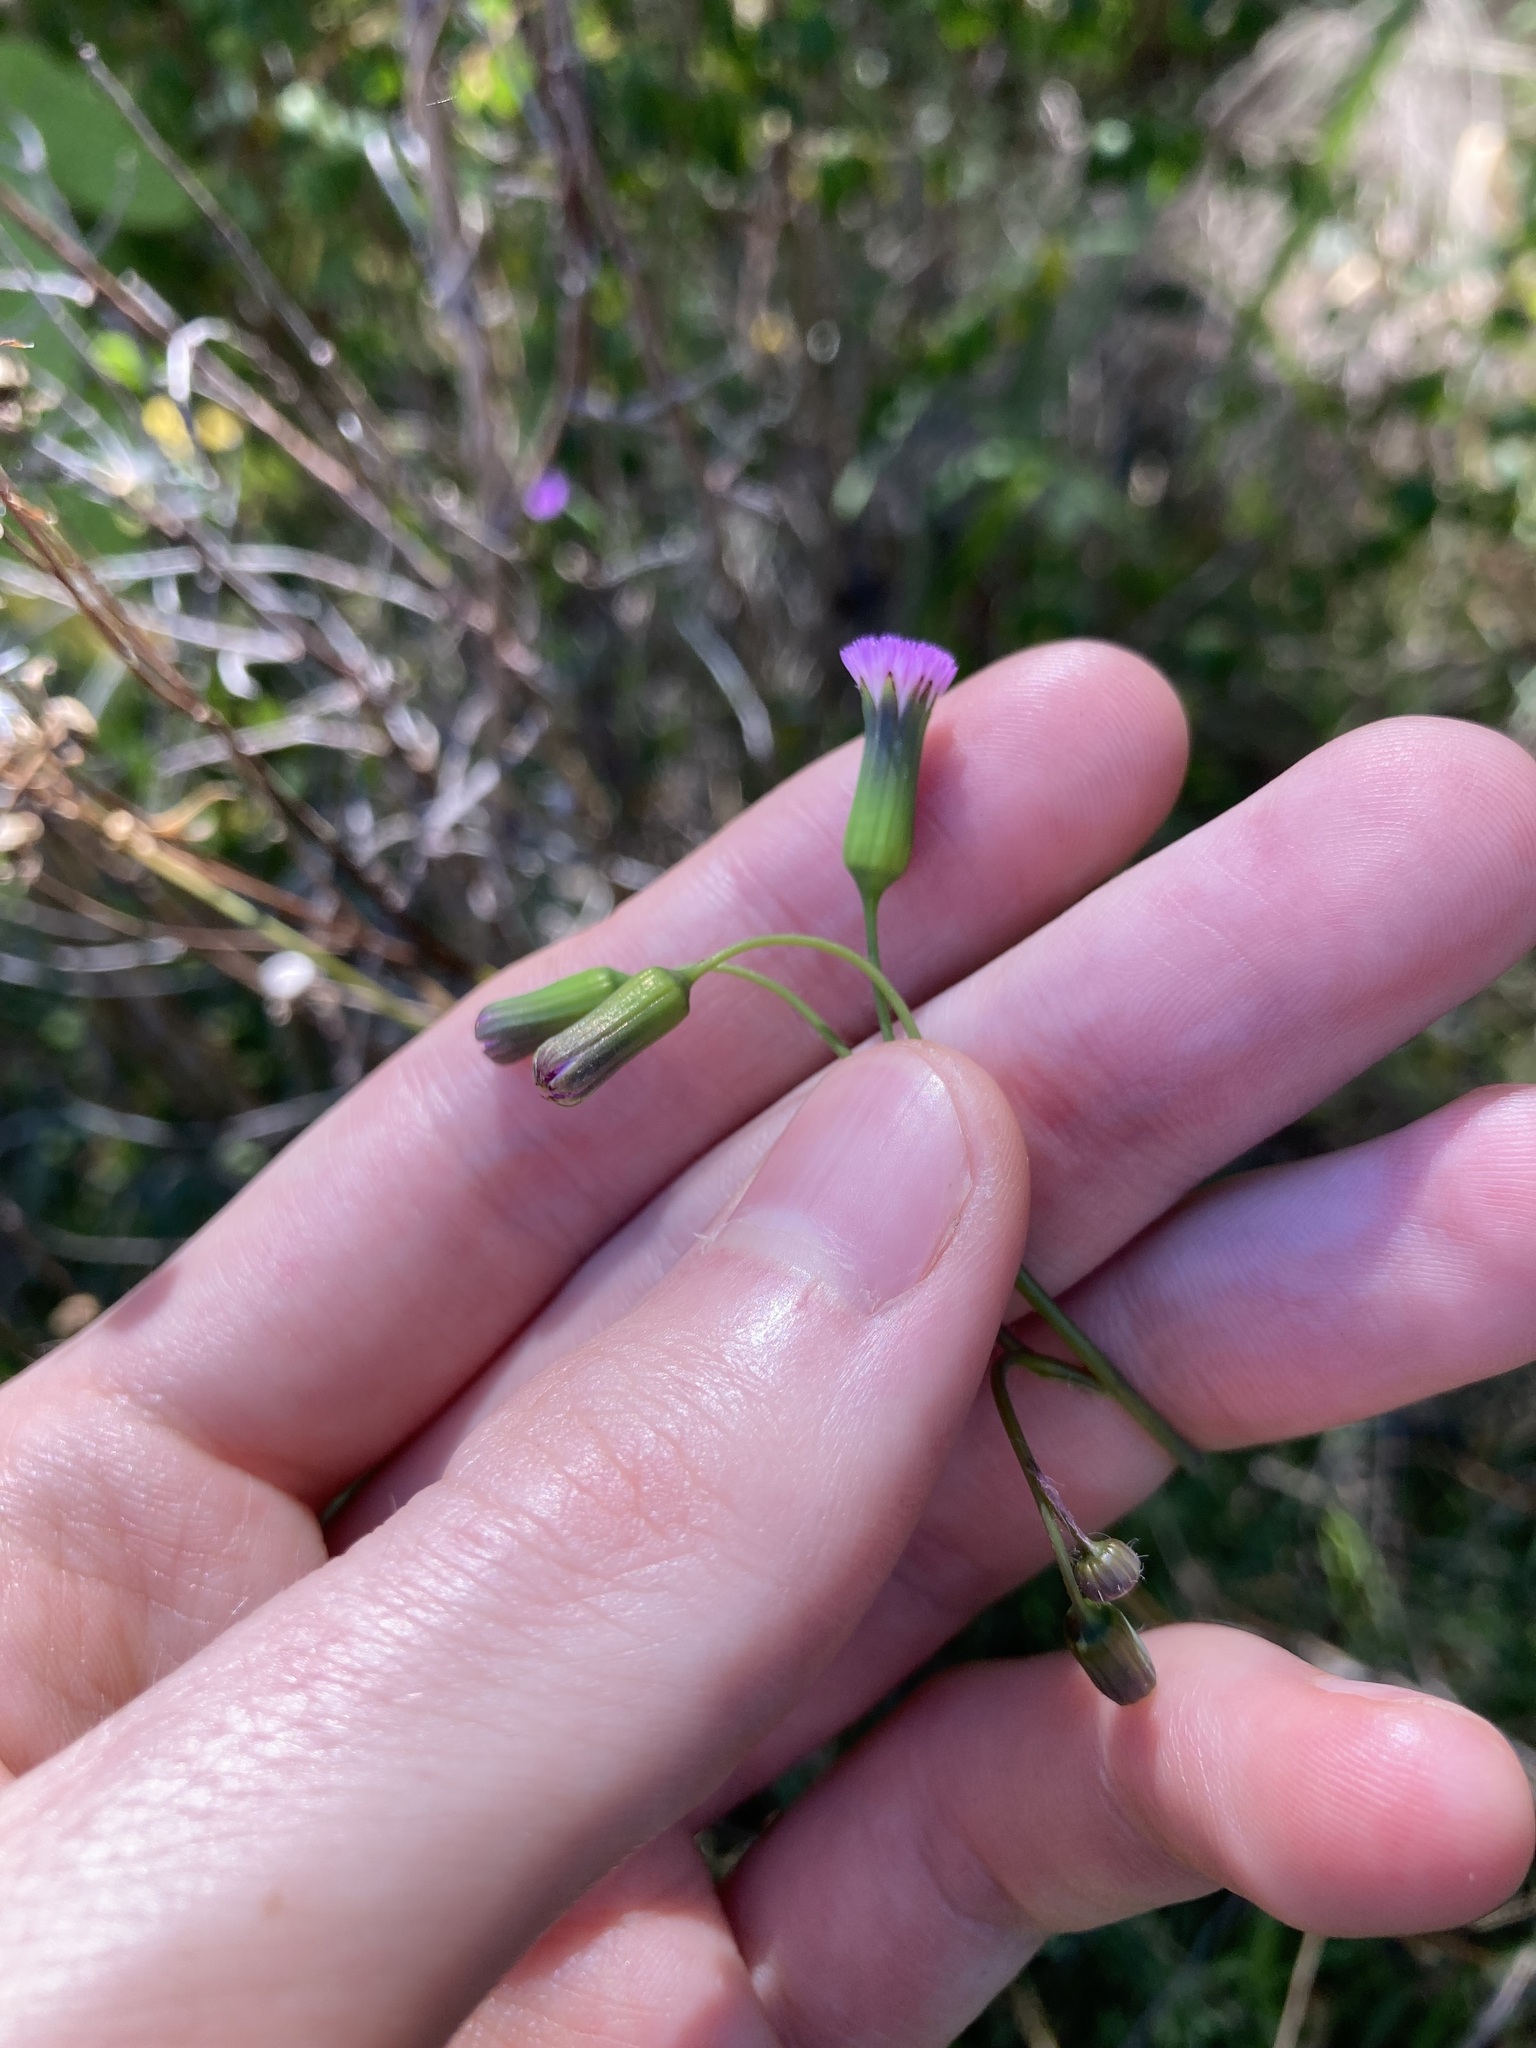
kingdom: Plantae
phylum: Tracheophyta
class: Magnoliopsida
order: Asterales
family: Asteraceae
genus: Emilia
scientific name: Emilia javanica
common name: Tassel-flower
